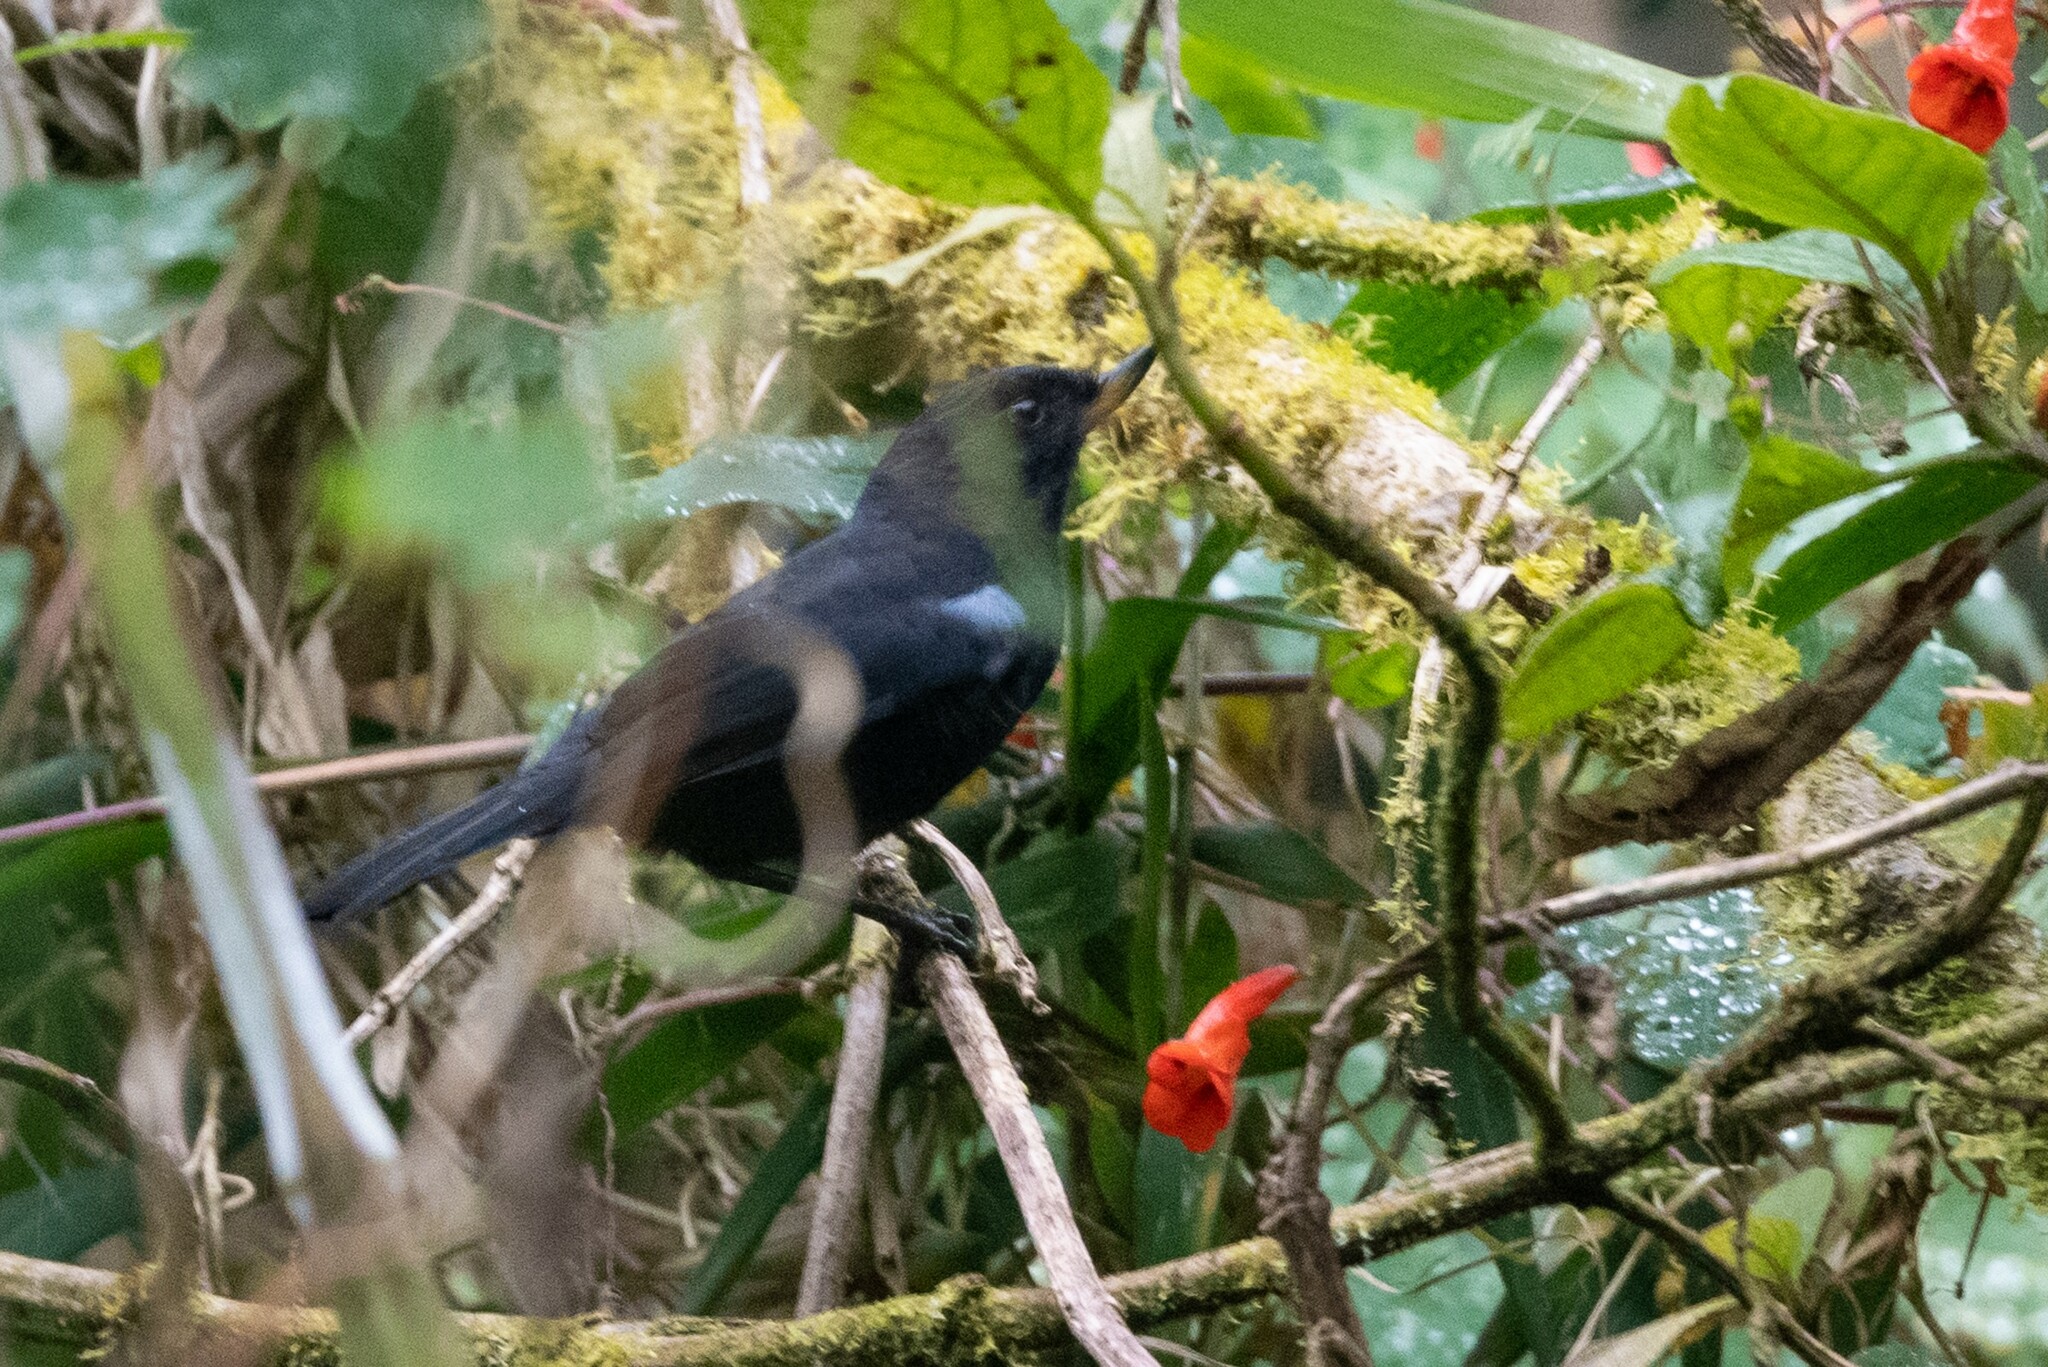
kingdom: Animalia
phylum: Chordata
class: Aves
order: Passeriformes
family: Thraupidae
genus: Diglossa
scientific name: Diglossa lafresnayii
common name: Glossy flowerpiercer
